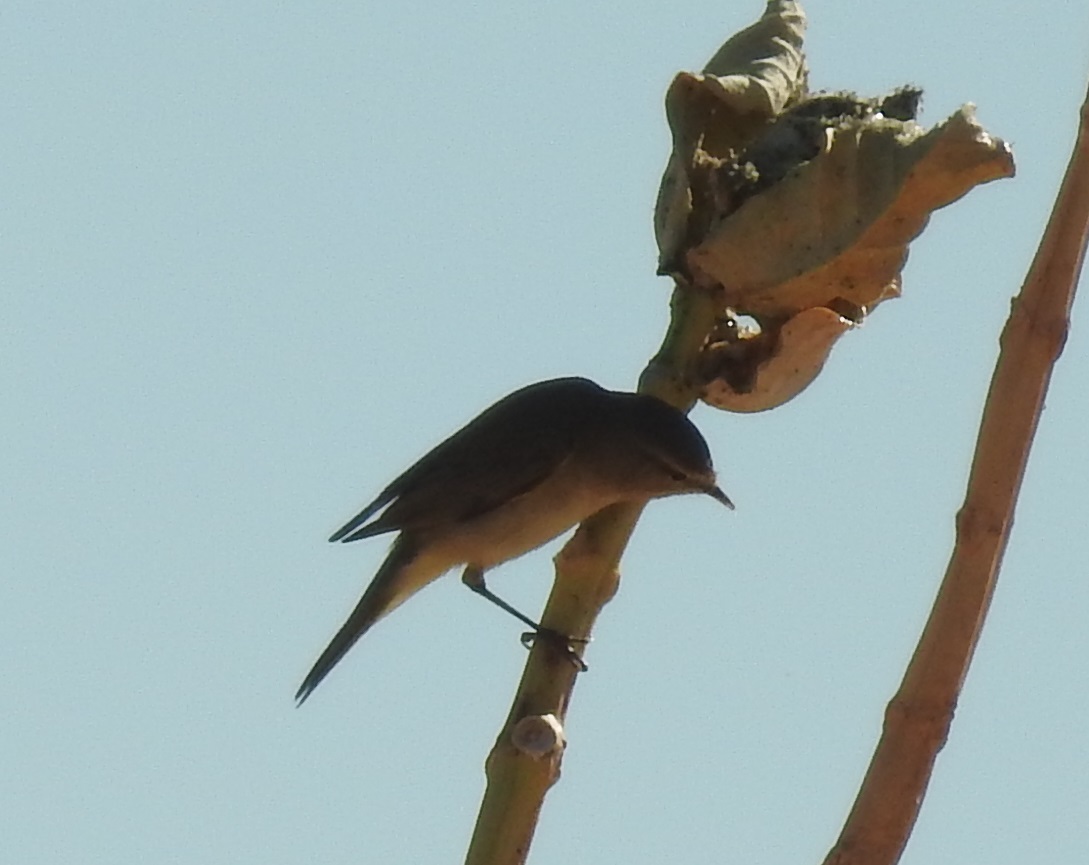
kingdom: Animalia
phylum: Chordata
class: Aves
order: Passeriformes
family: Phylloscopidae
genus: Phylloscopus
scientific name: Phylloscopus collybita
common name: Common chiffchaff
